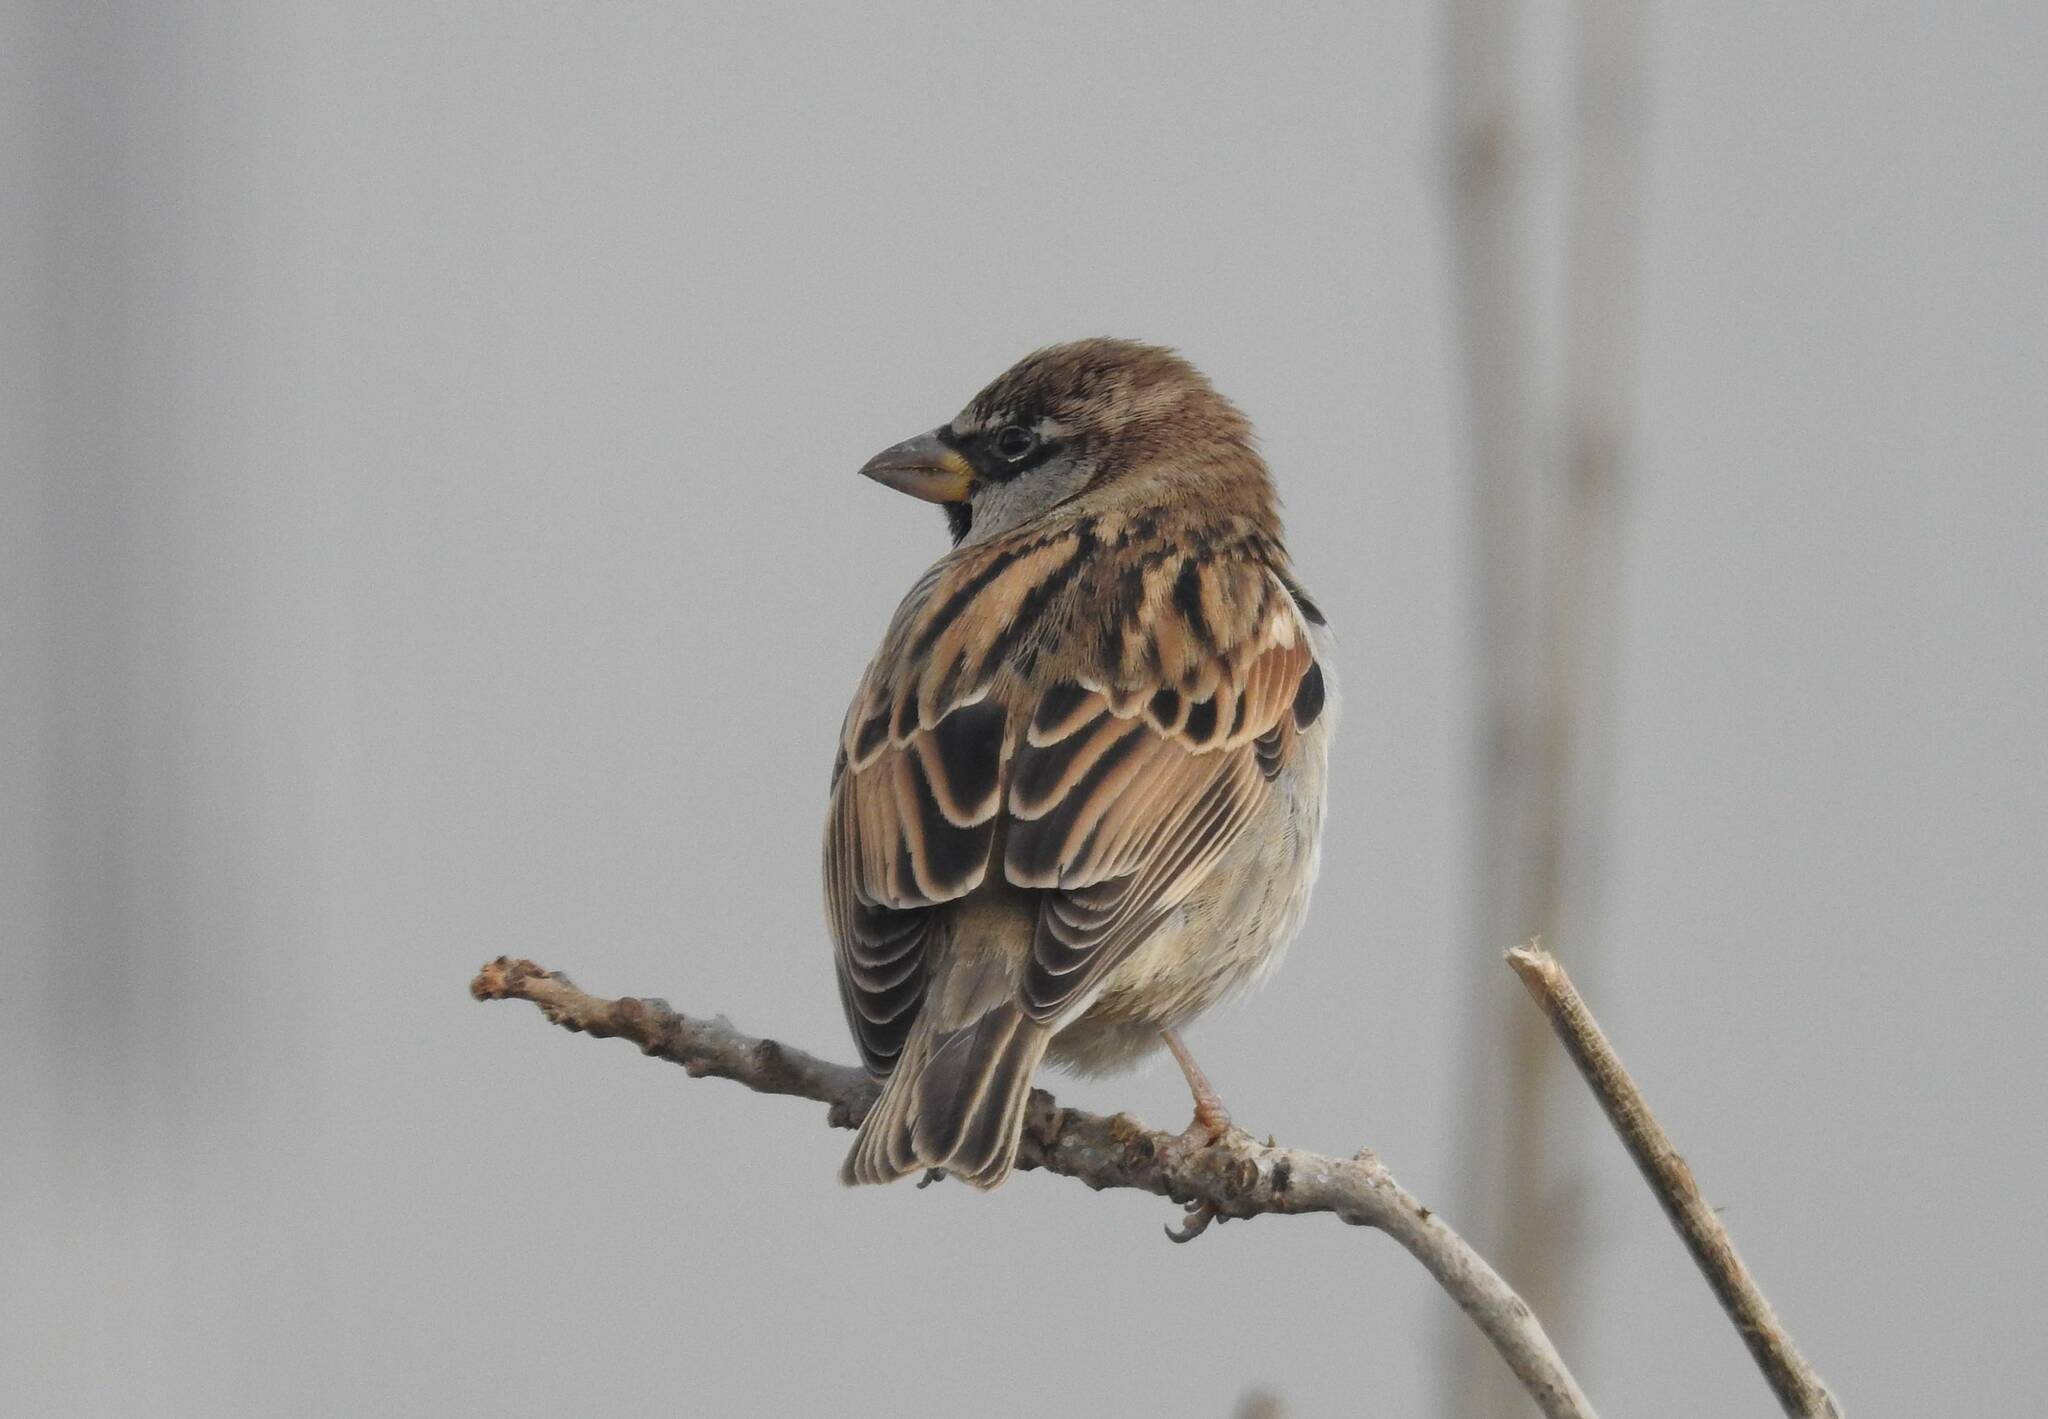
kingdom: Animalia
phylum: Chordata
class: Aves
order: Passeriformes
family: Passeridae
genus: Passer
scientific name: Passer domesticus
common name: House sparrow
